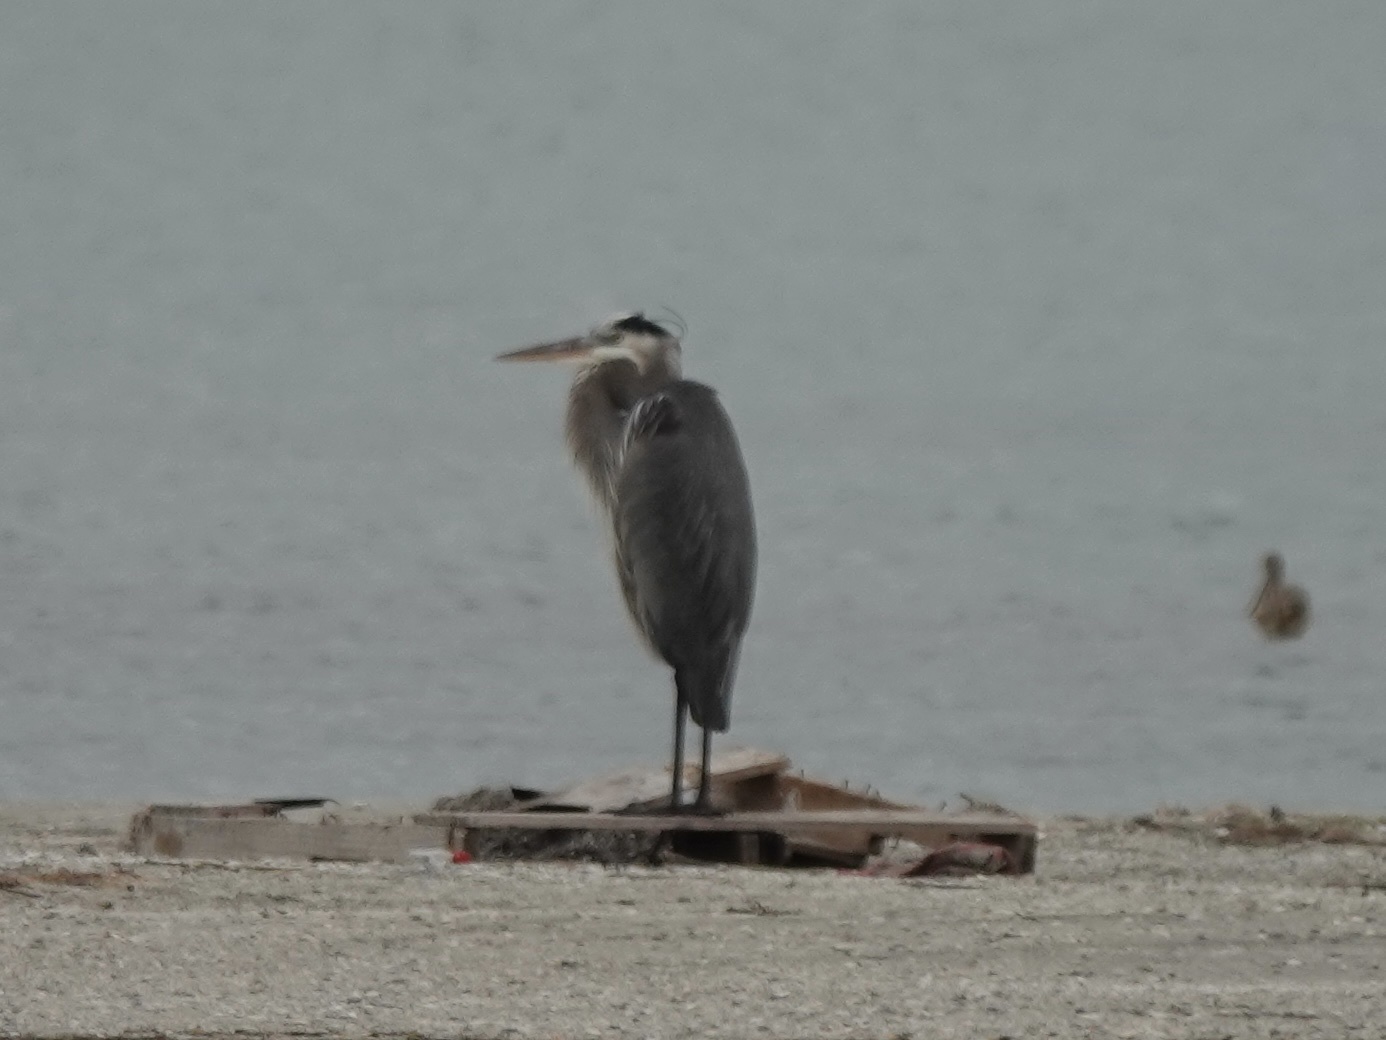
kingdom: Animalia
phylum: Chordata
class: Aves
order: Pelecaniformes
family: Ardeidae
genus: Ardea
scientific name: Ardea herodias
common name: Great blue heron
